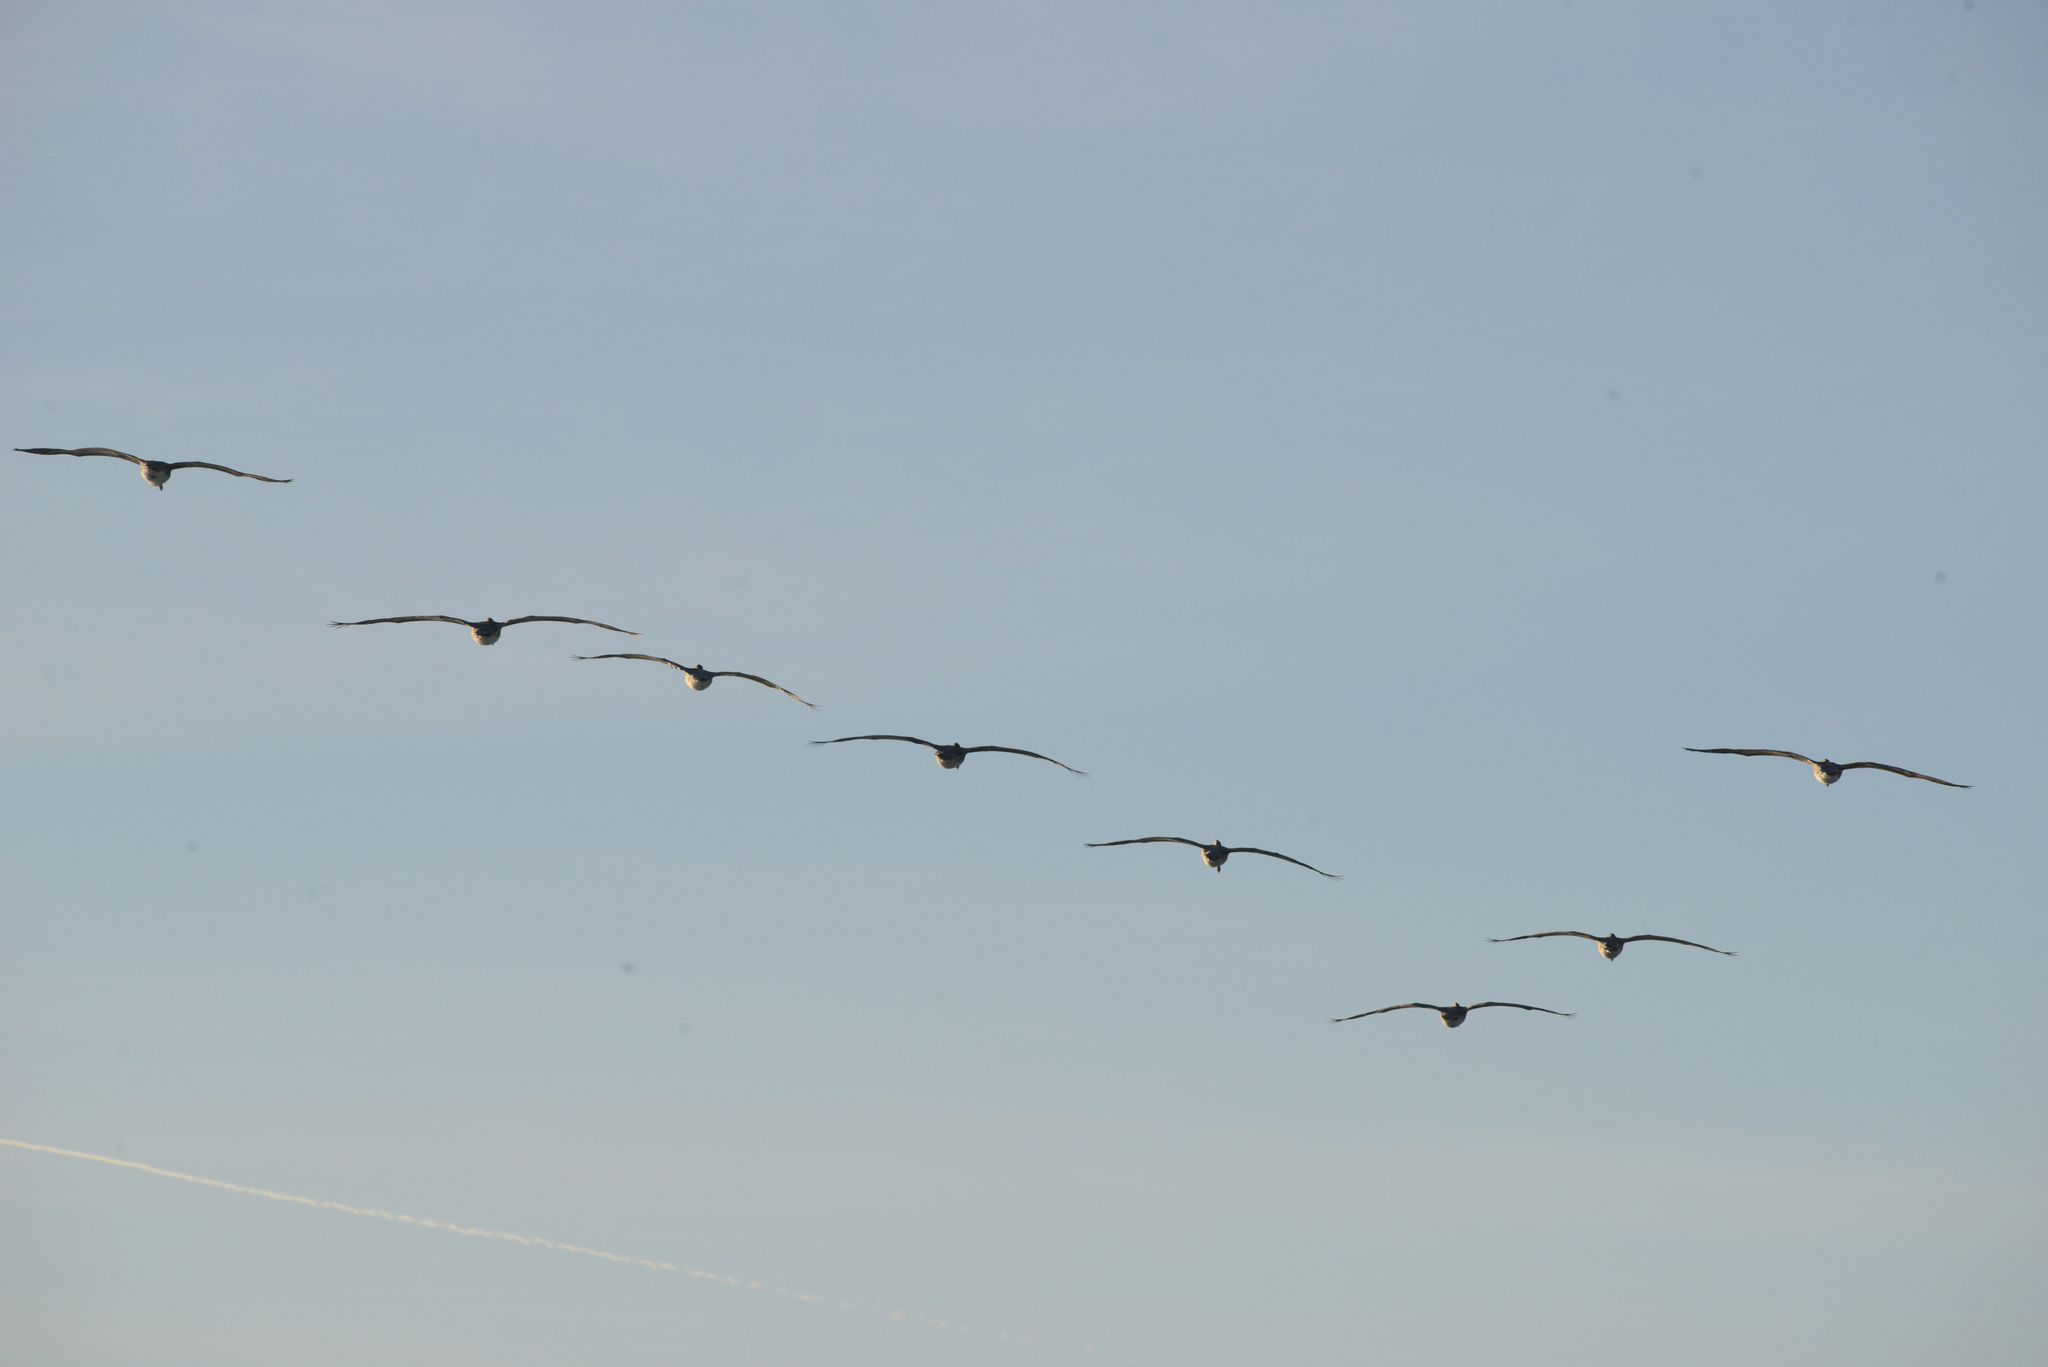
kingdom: Animalia
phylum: Chordata
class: Aves
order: Pelecaniformes
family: Pelecanidae
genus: Pelecanus
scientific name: Pelecanus occidentalis
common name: Brown pelican
